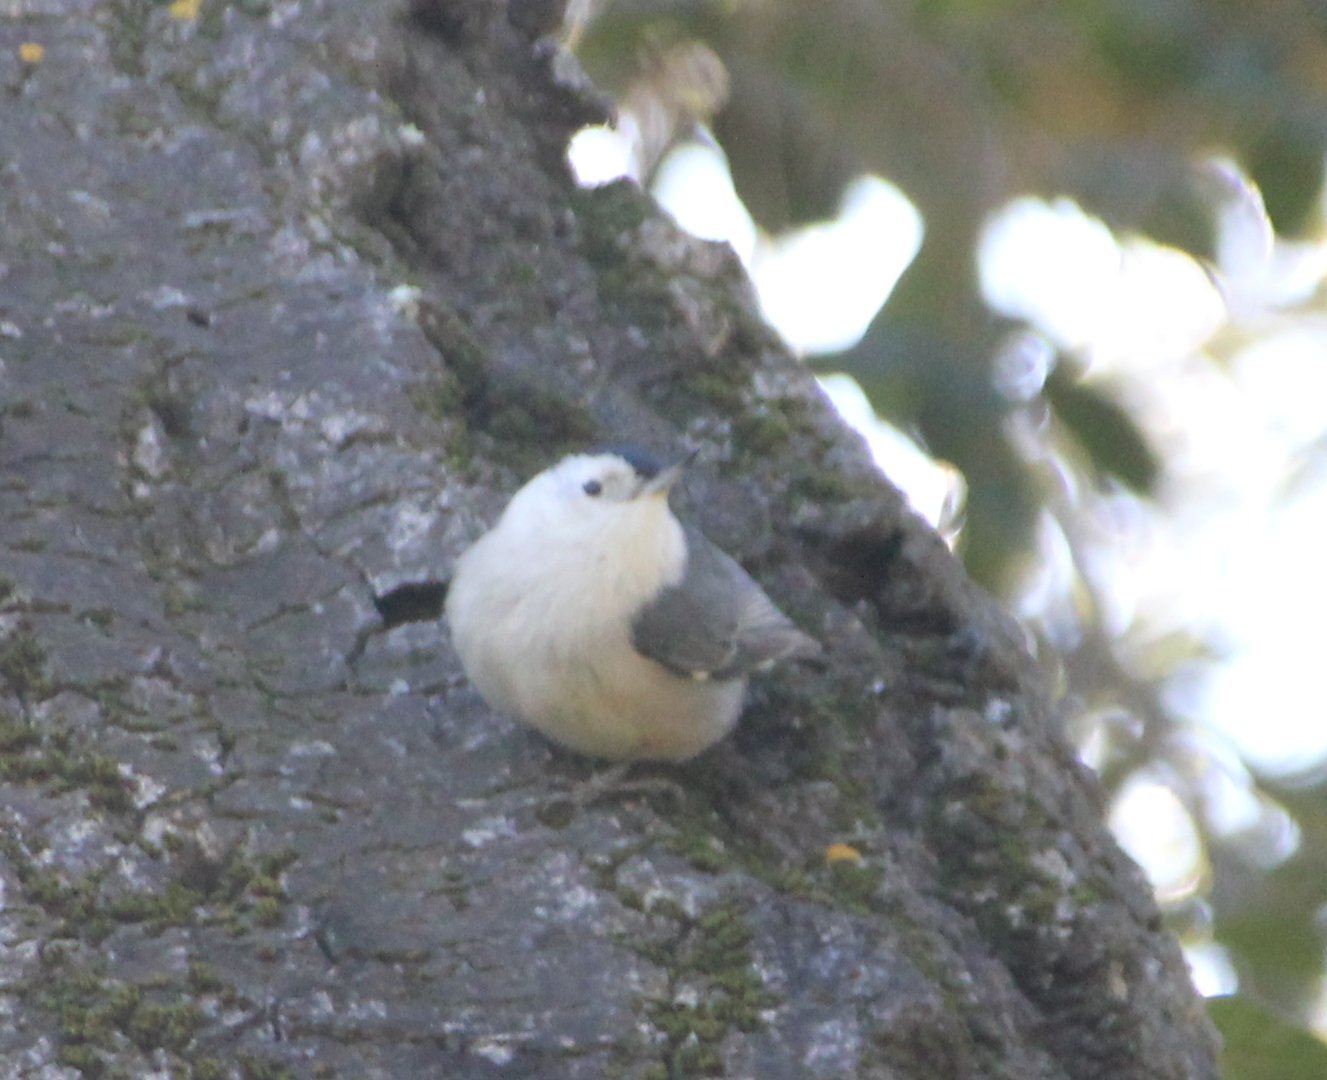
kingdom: Animalia
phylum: Chordata
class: Aves
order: Passeriformes
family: Sittidae
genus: Sitta
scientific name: Sitta carolinensis
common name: White-breasted nuthatch
